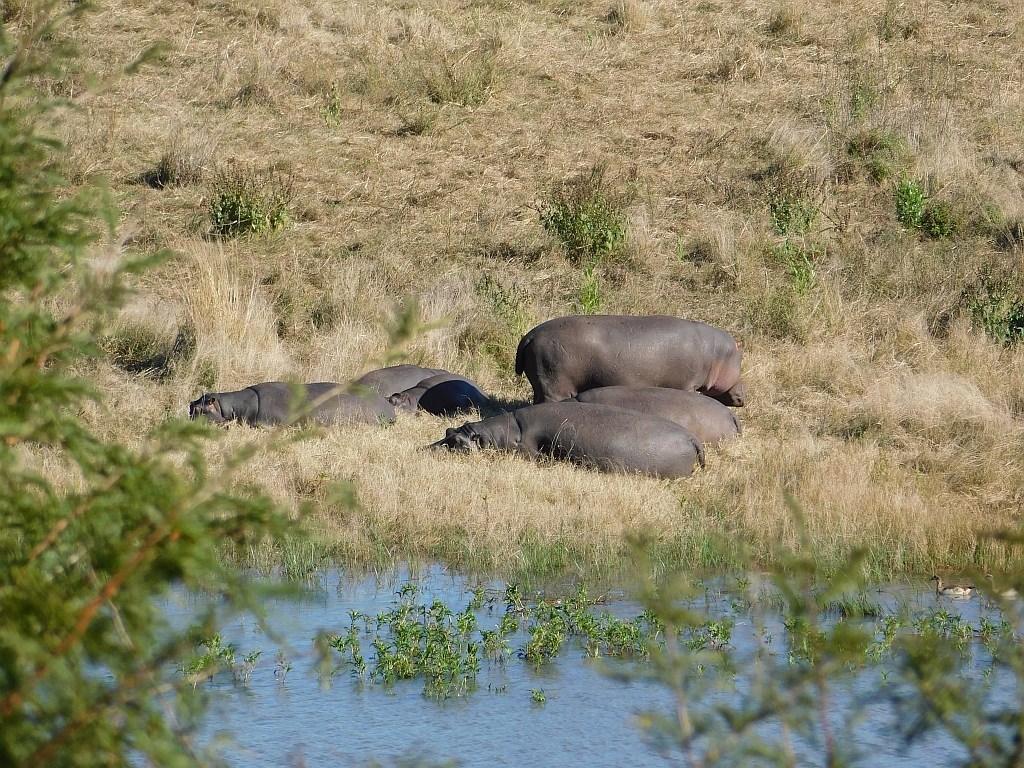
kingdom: Animalia
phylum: Chordata
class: Mammalia
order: Artiodactyla
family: Hippopotamidae
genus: Hippopotamus
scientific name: Hippopotamus amphibius
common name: Common hippopotamus
